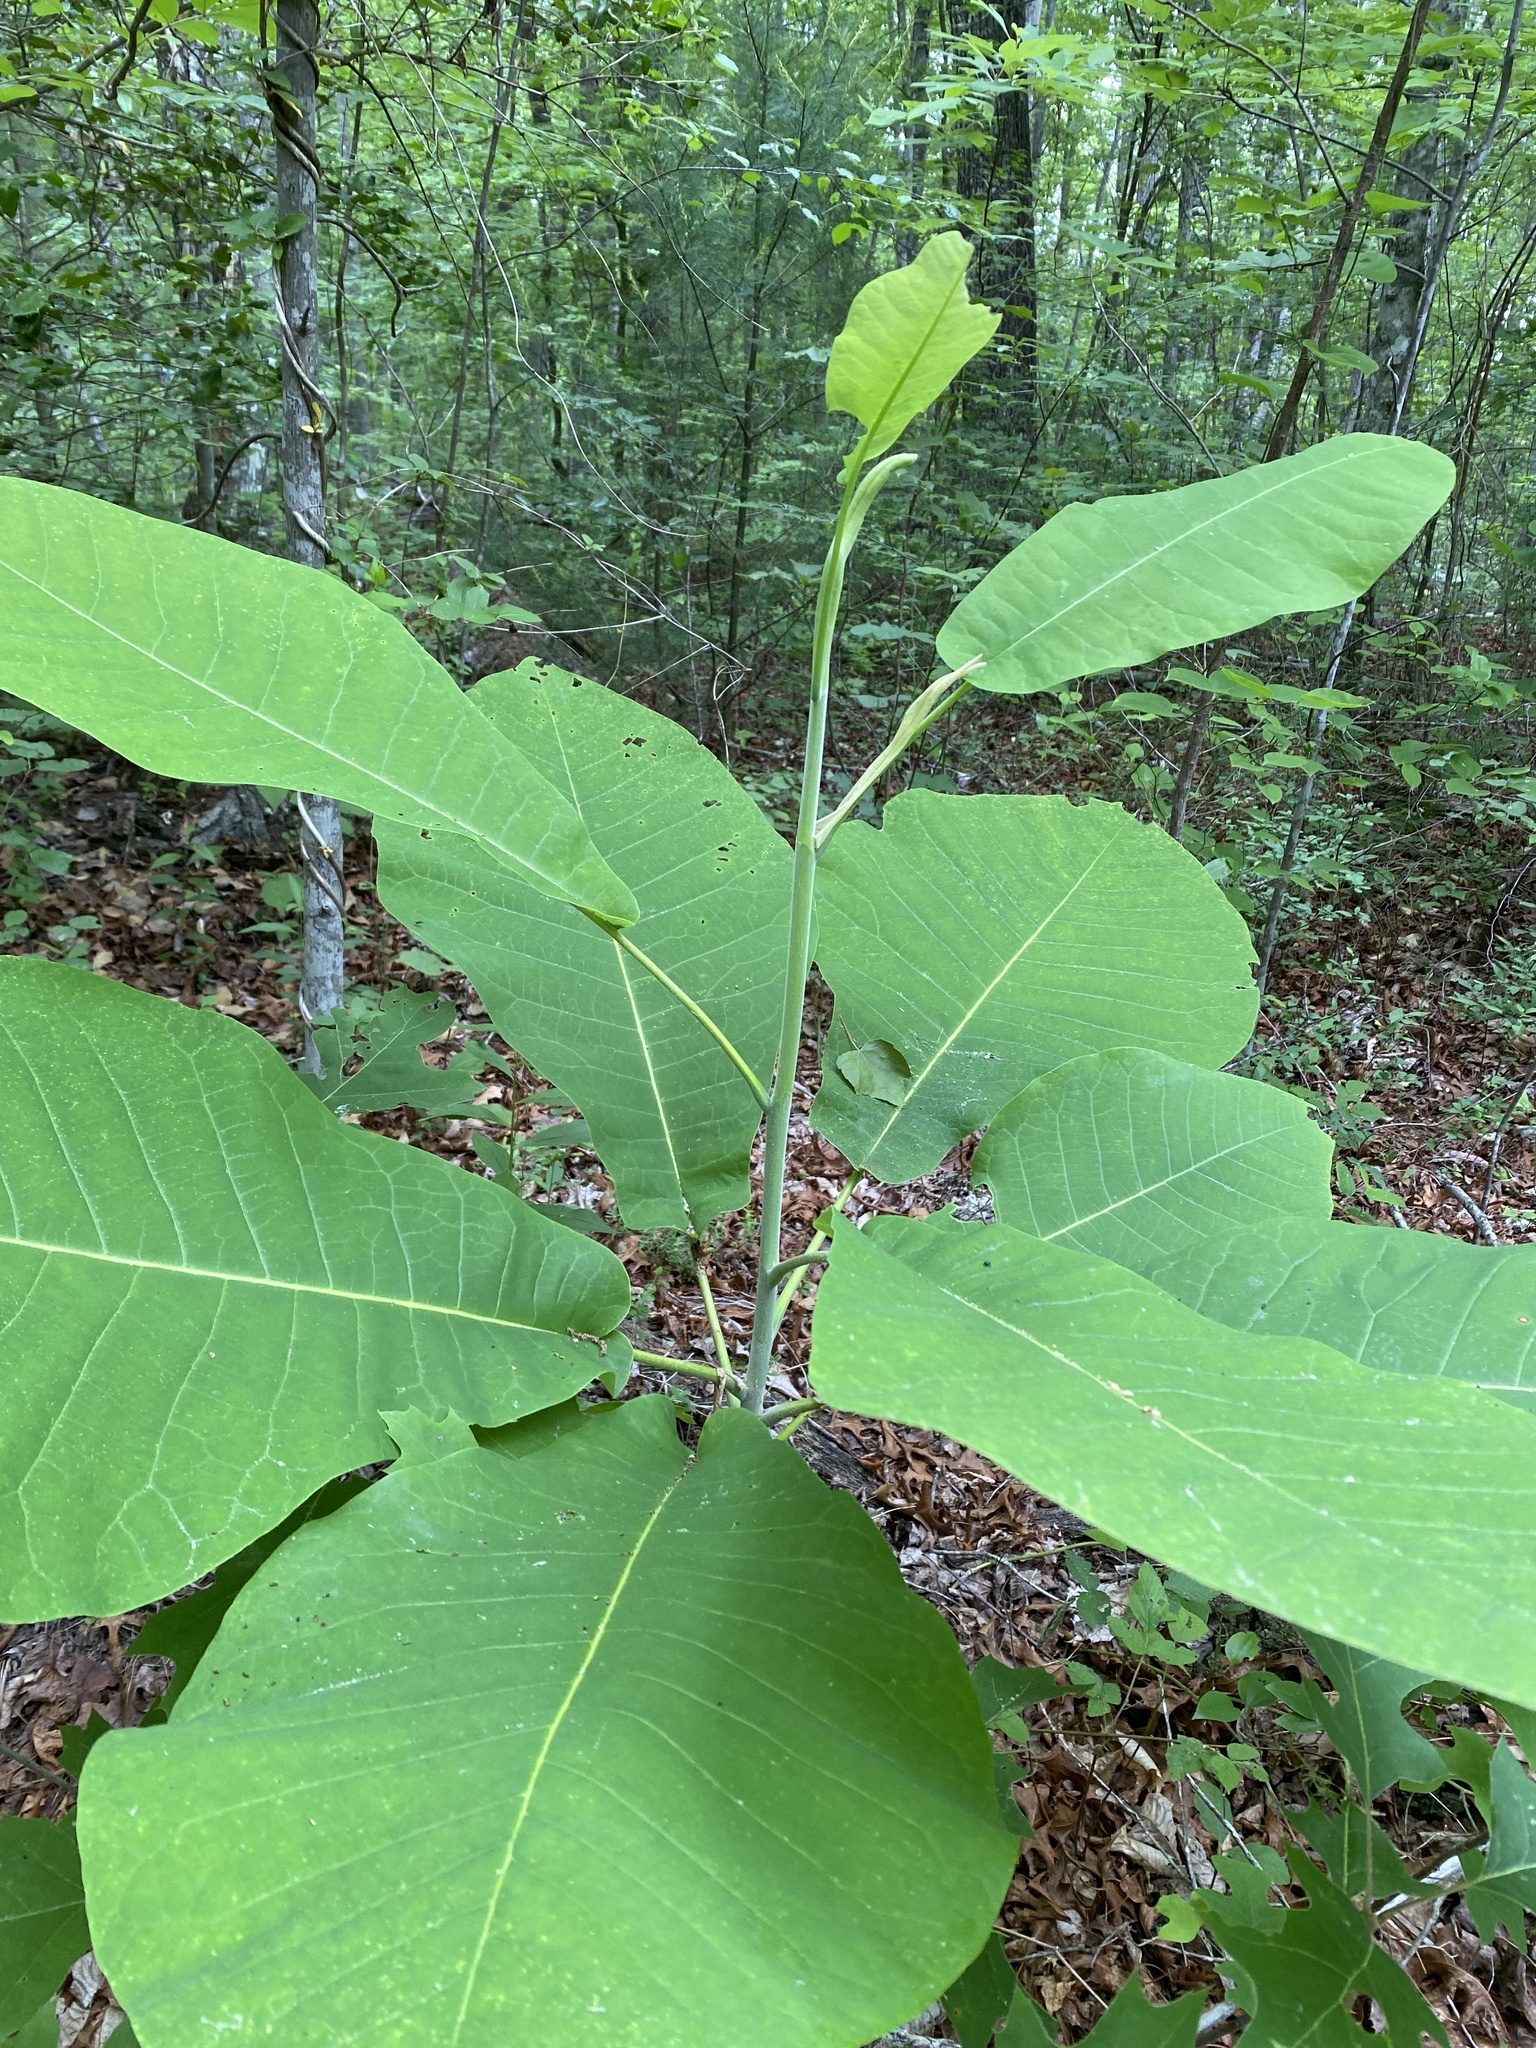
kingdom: Plantae
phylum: Tracheophyta
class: Magnoliopsida
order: Magnoliales
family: Magnoliaceae
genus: Magnolia
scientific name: Magnolia macrophylla
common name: Big-leaf magnolia
